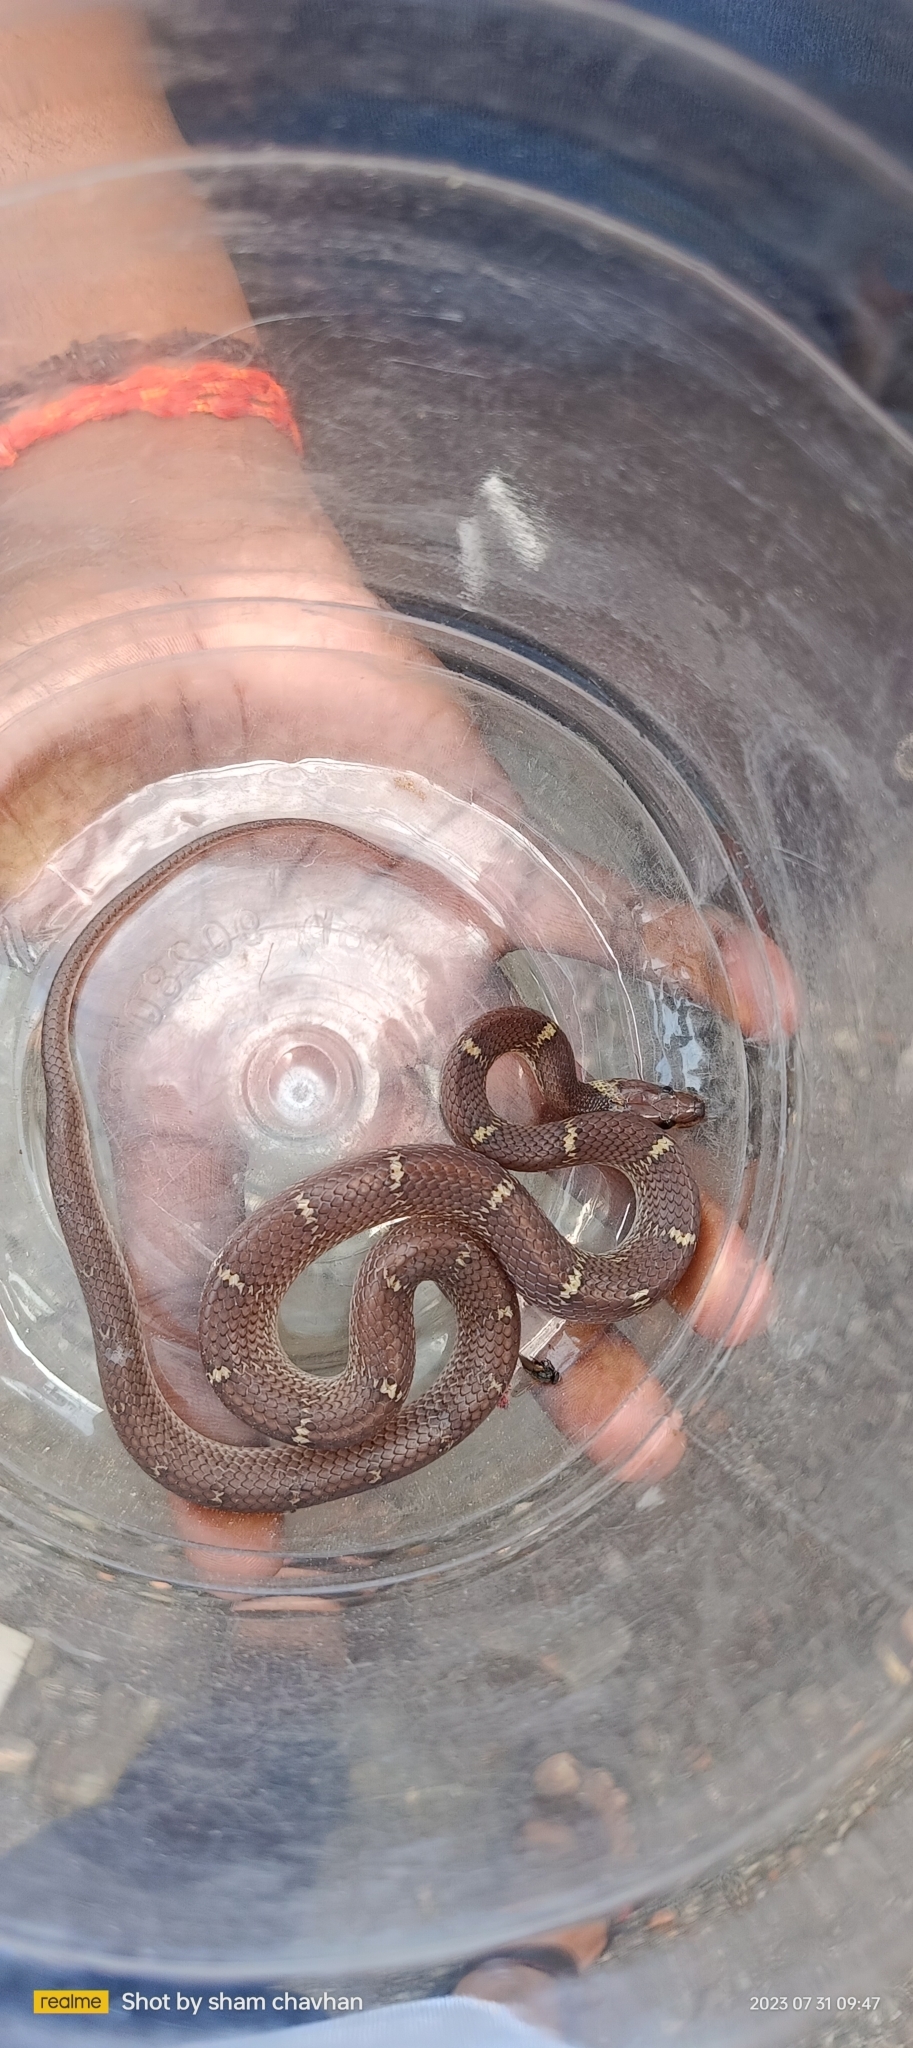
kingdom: Animalia
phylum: Chordata
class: Squamata
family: Colubridae
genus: Lycodon
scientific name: Lycodon aulicus
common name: Common wolf snake
